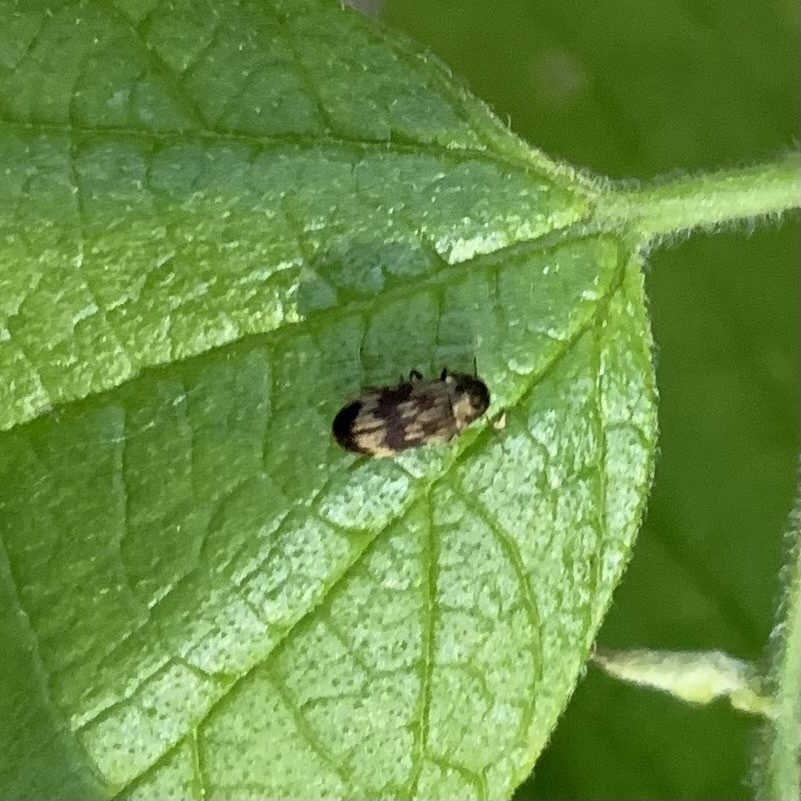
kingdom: Animalia
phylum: Arthropoda
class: Insecta
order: Coleoptera
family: Anobiidae
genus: Hadrobregmus
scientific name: Hadrobregmus notatus
